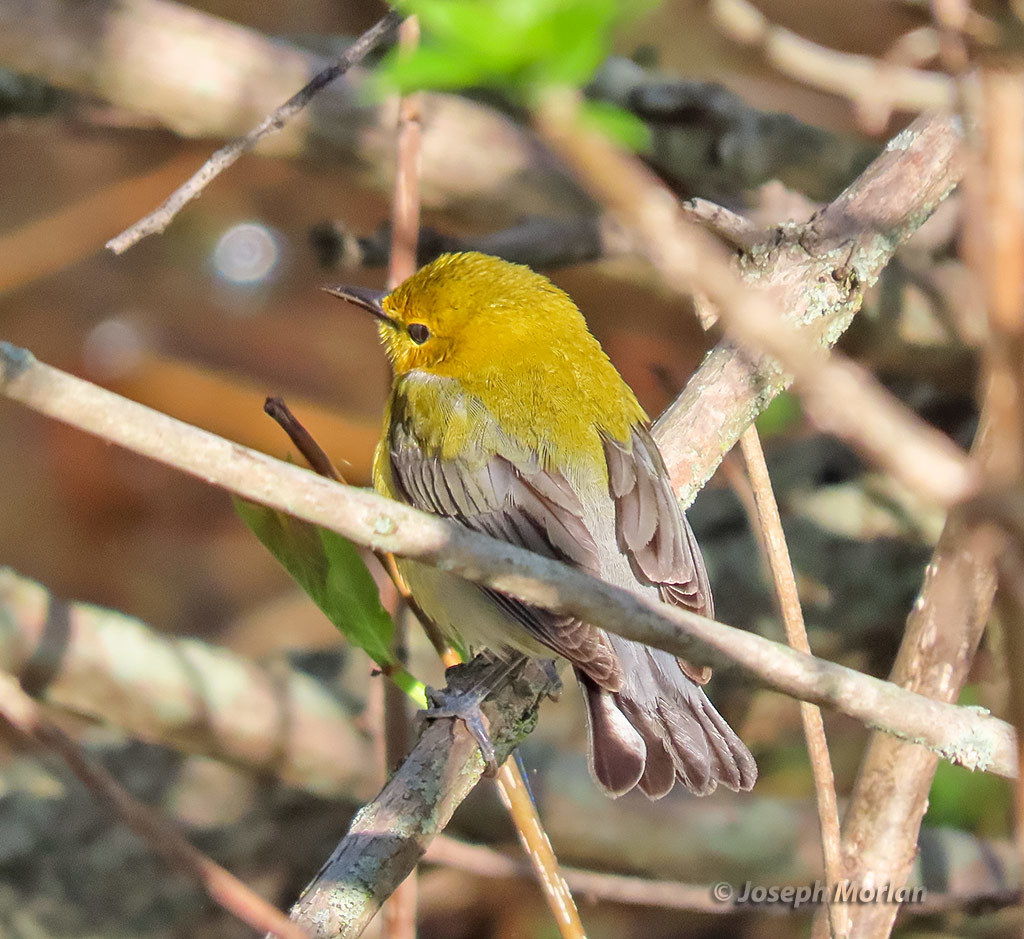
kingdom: Animalia
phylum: Chordata
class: Aves
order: Passeriformes
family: Parulidae
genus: Protonotaria
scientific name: Protonotaria citrea
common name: Prothonotary warbler
